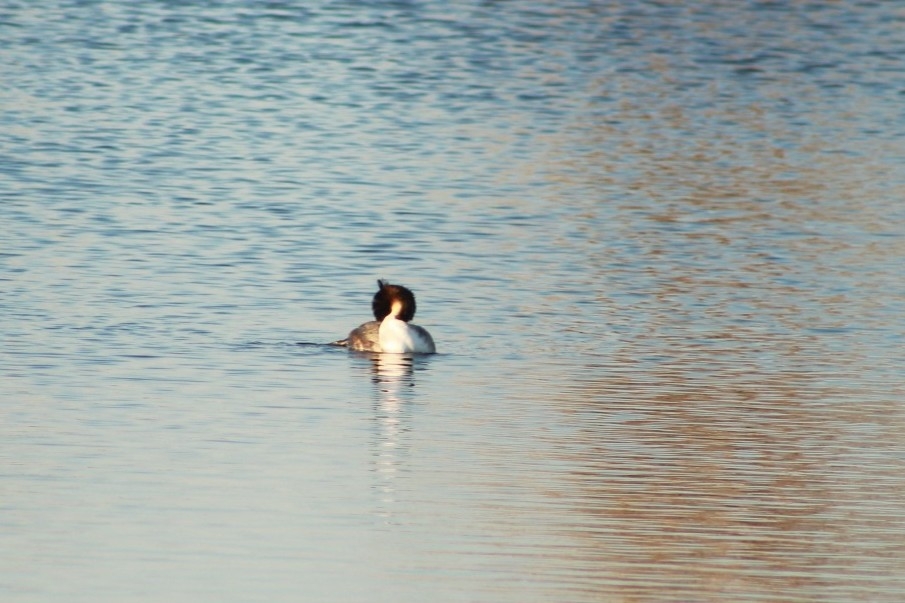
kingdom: Animalia
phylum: Chordata
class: Aves
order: Podicipediformes
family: Podicipedidae
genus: Podiceps
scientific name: Podiceps cristatus
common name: Great crested grebe
